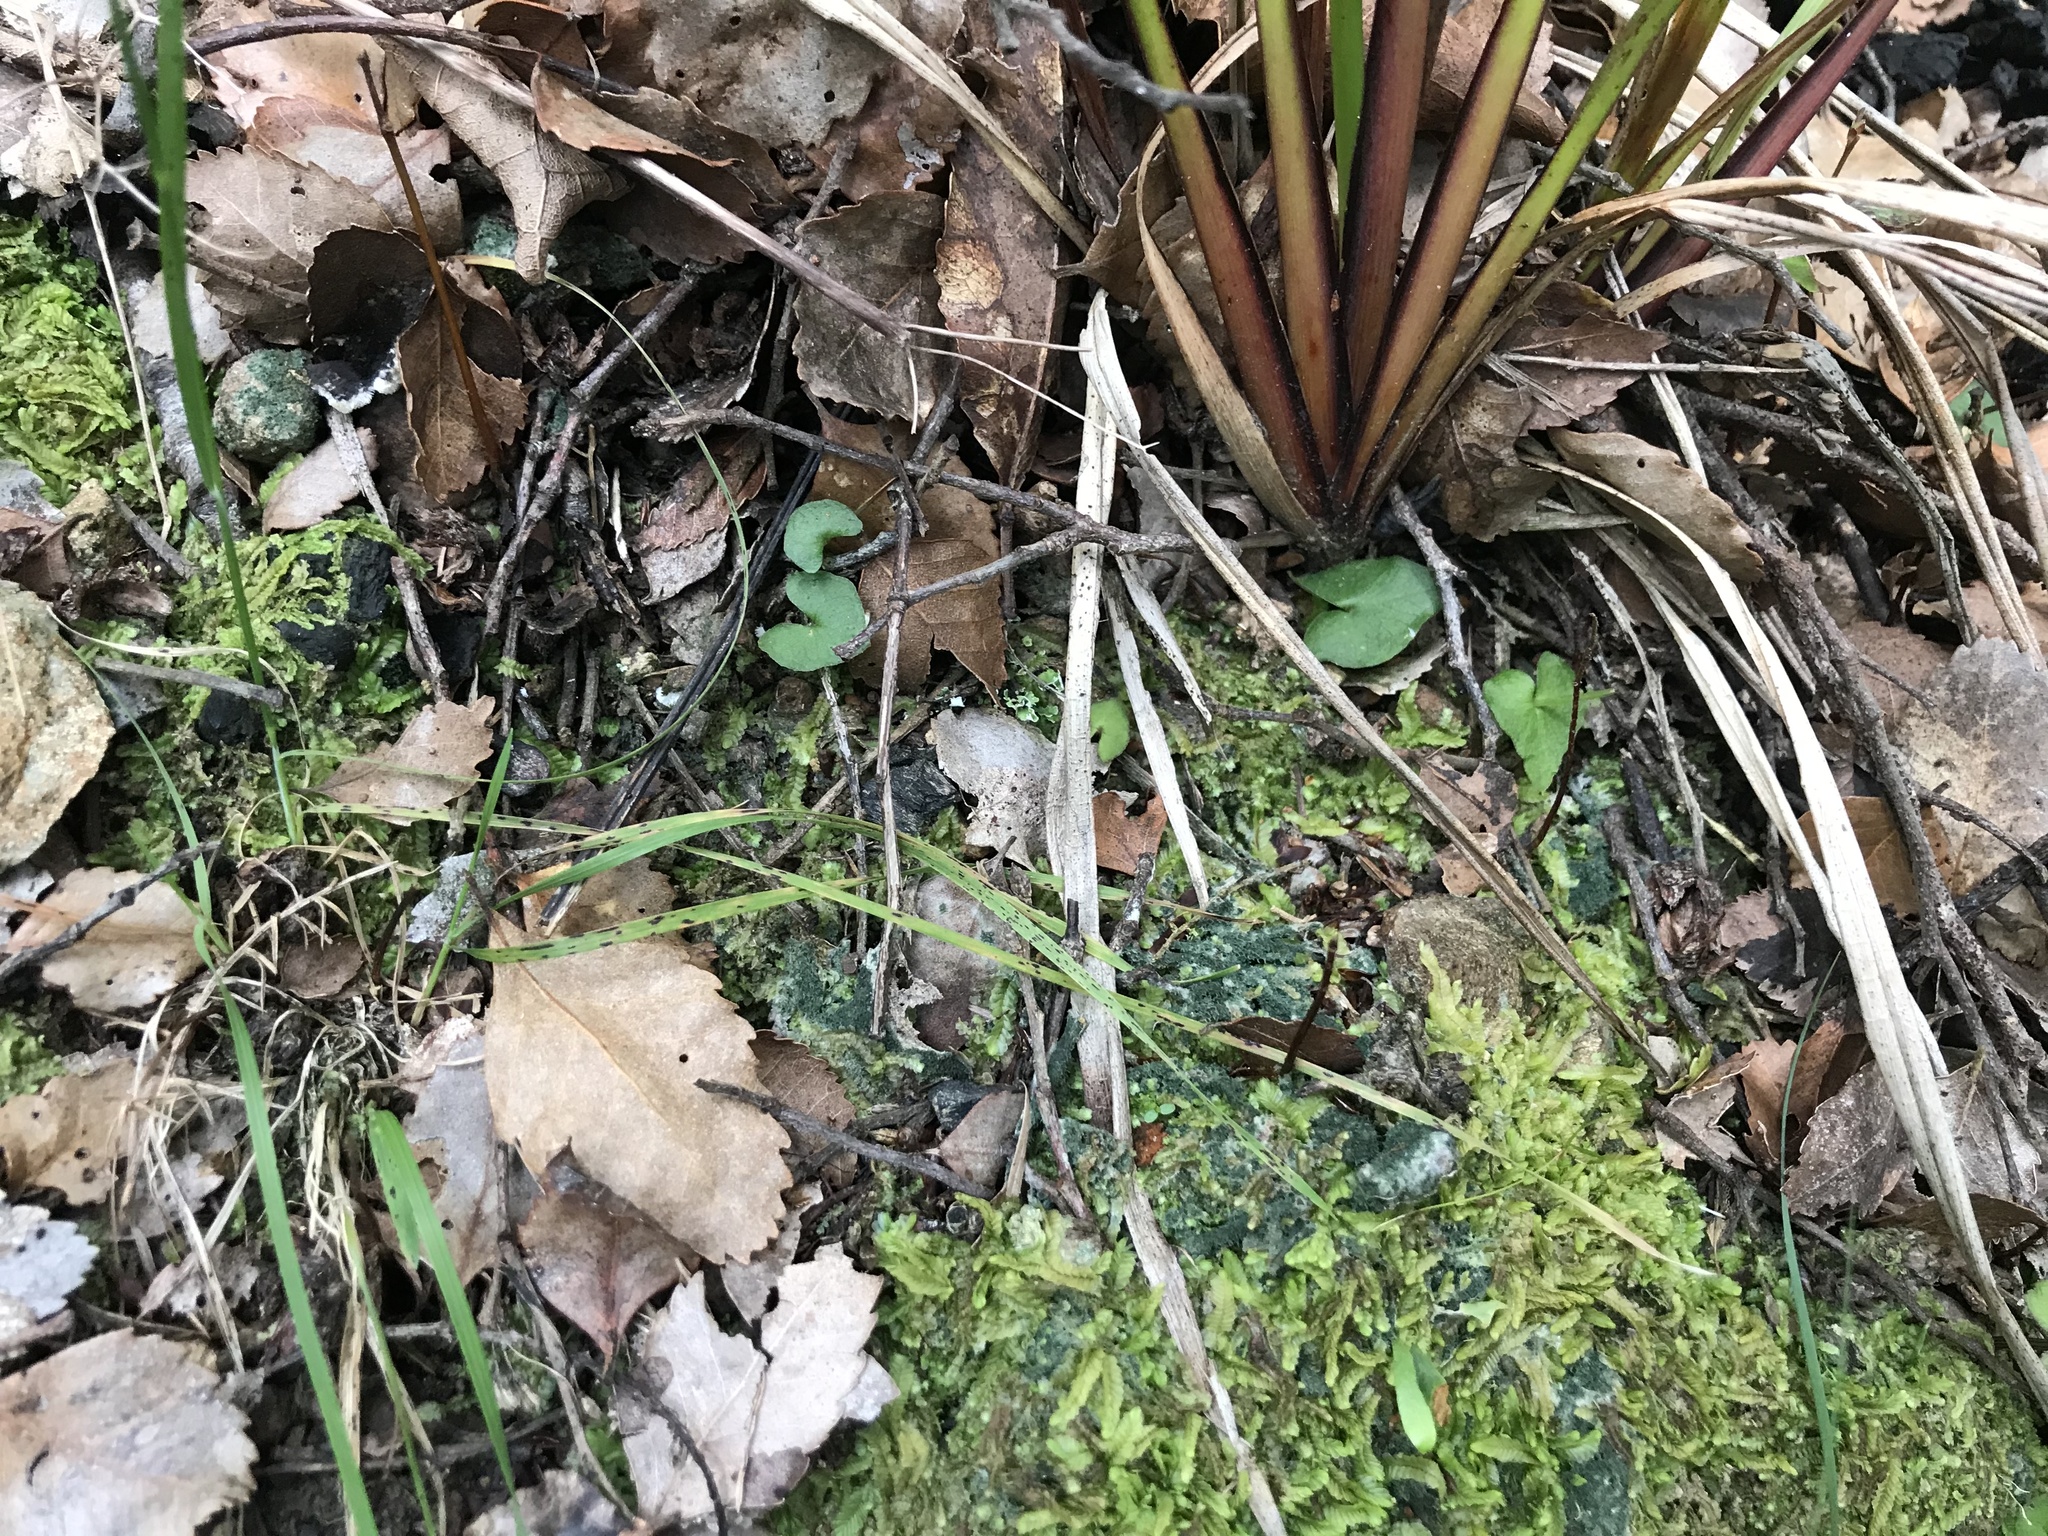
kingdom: Plantae
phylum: Tracheophyta
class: Liliopsida
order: Asparagales
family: Orchidaceae
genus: Acianthus
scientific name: Acianthus sinclairii
